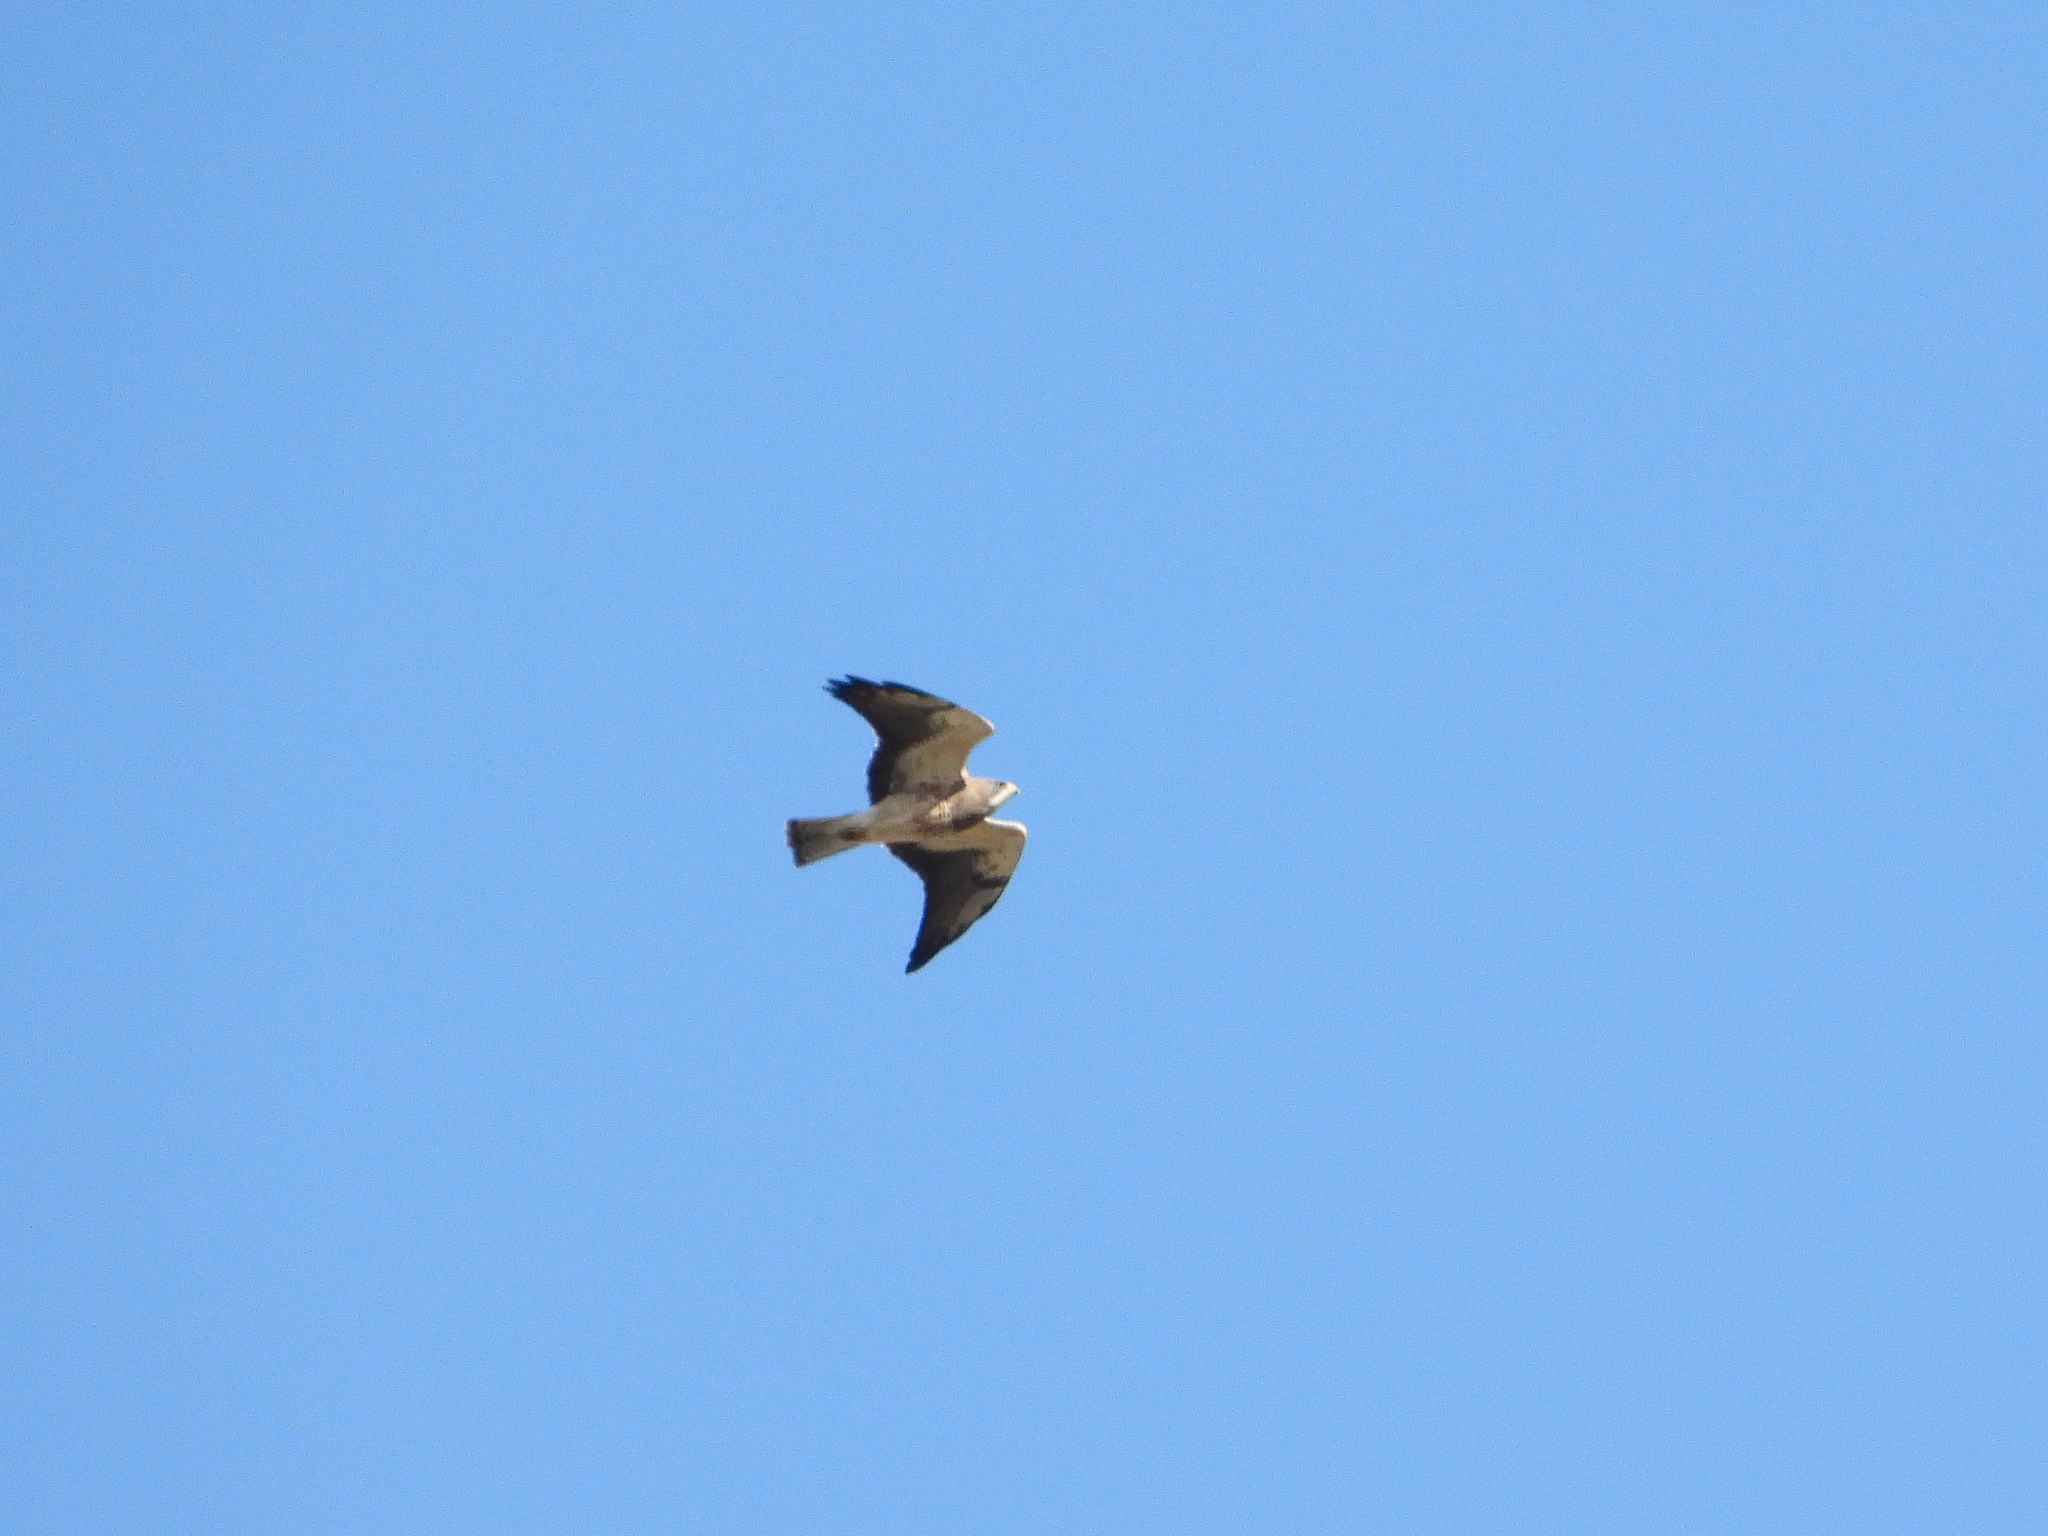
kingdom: Animalia
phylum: Chordata
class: Aves
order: Accipitriformes
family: Accipitridae
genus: Buteo
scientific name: Buteo swainsoni
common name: Swainson's hawk
